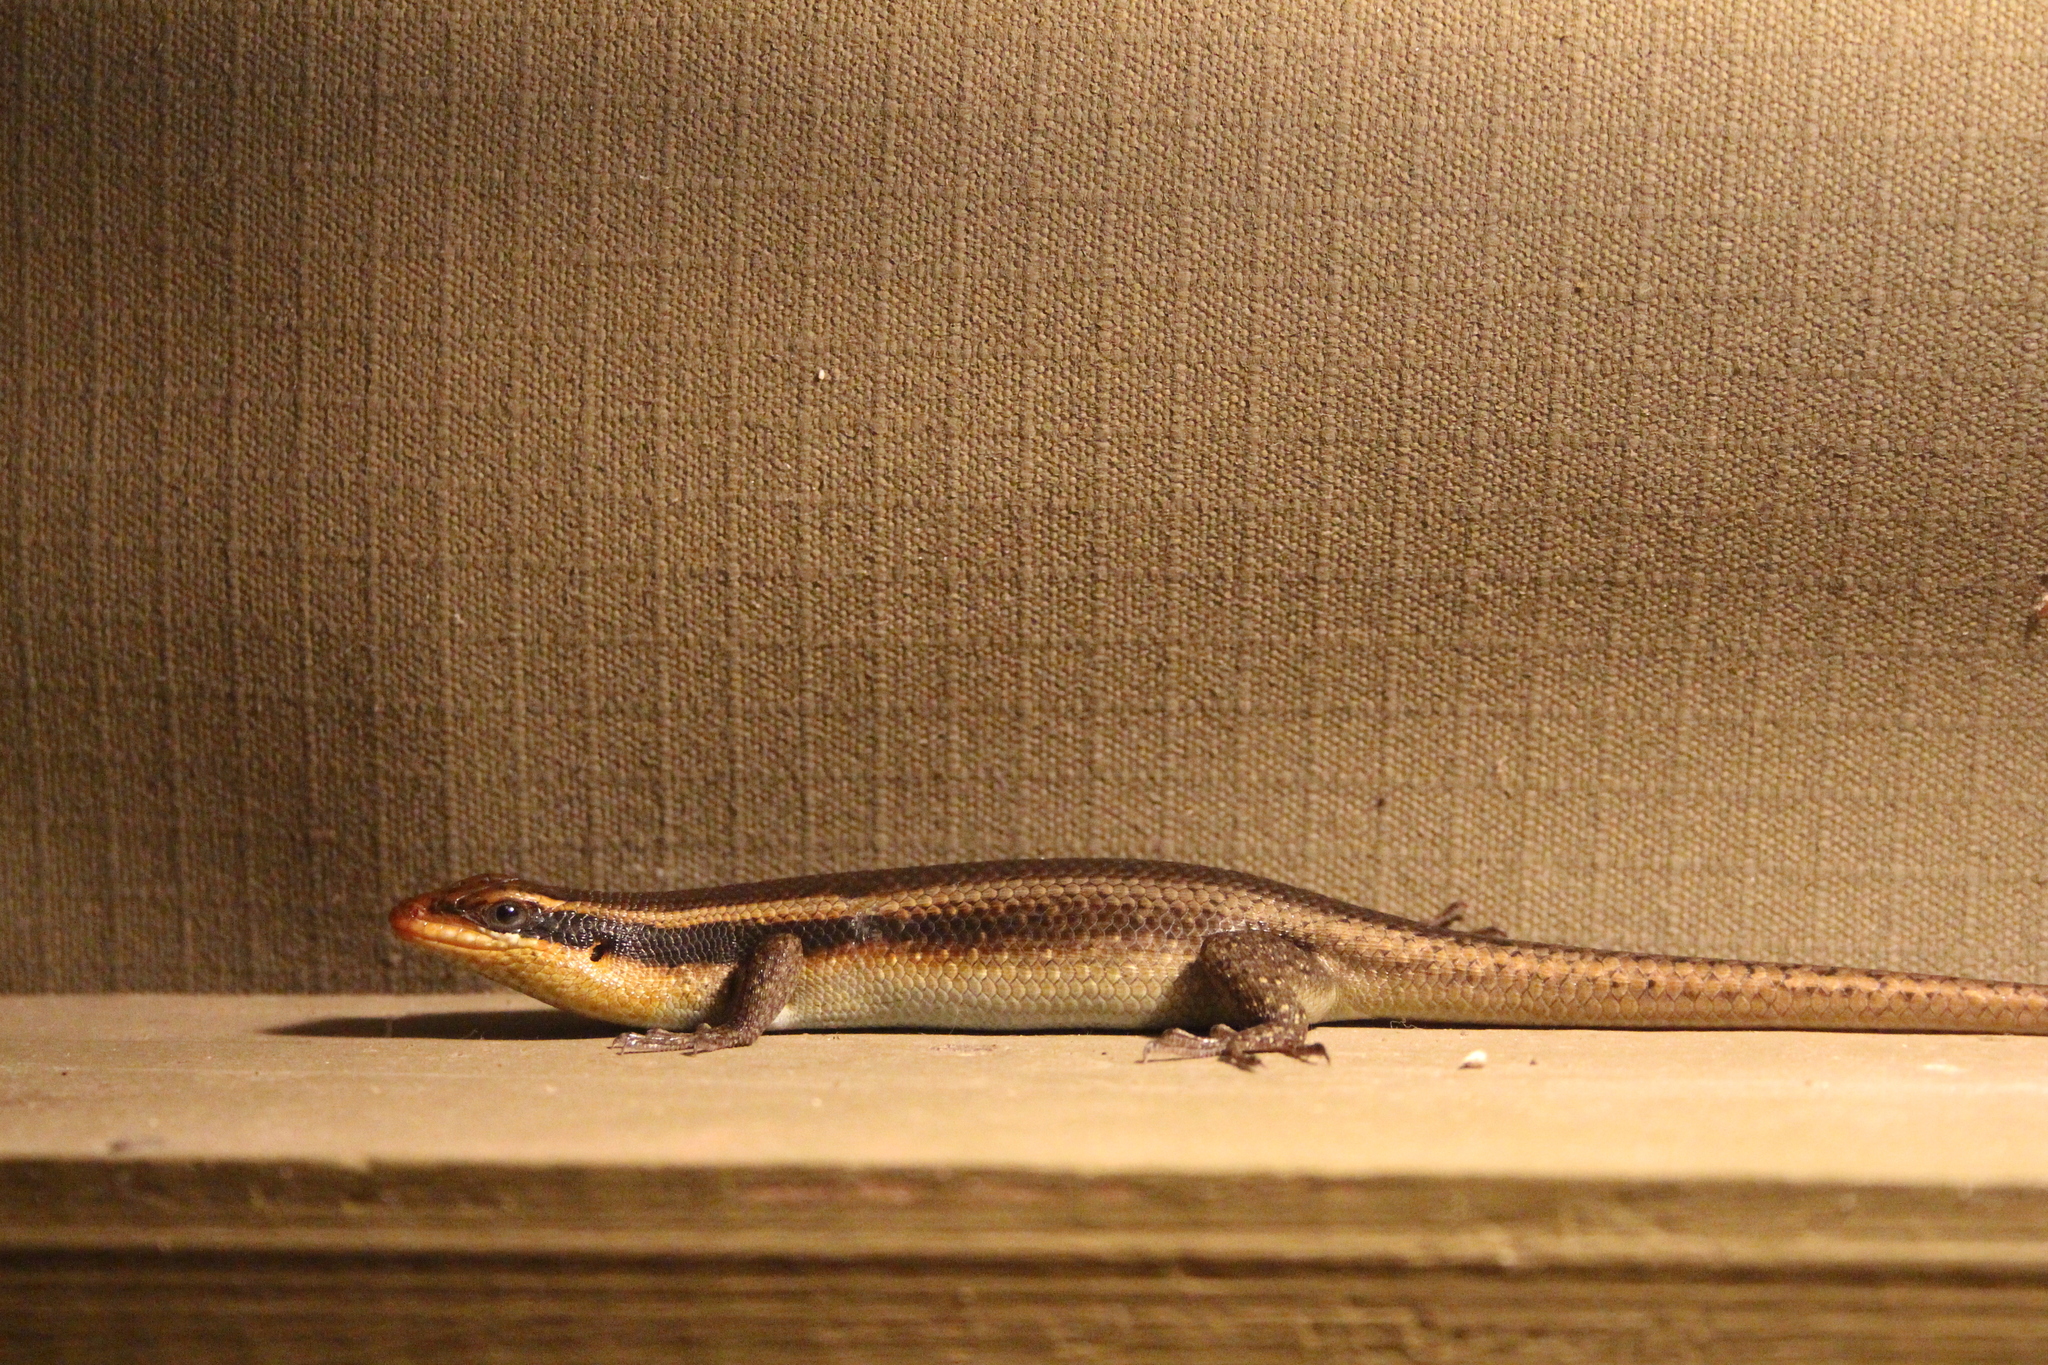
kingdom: Animalia
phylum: Chordata
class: Squamata
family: Scincidae
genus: Trachylepis
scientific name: Trachylepis wahlbergii
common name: Wahlberg’s striped skink
